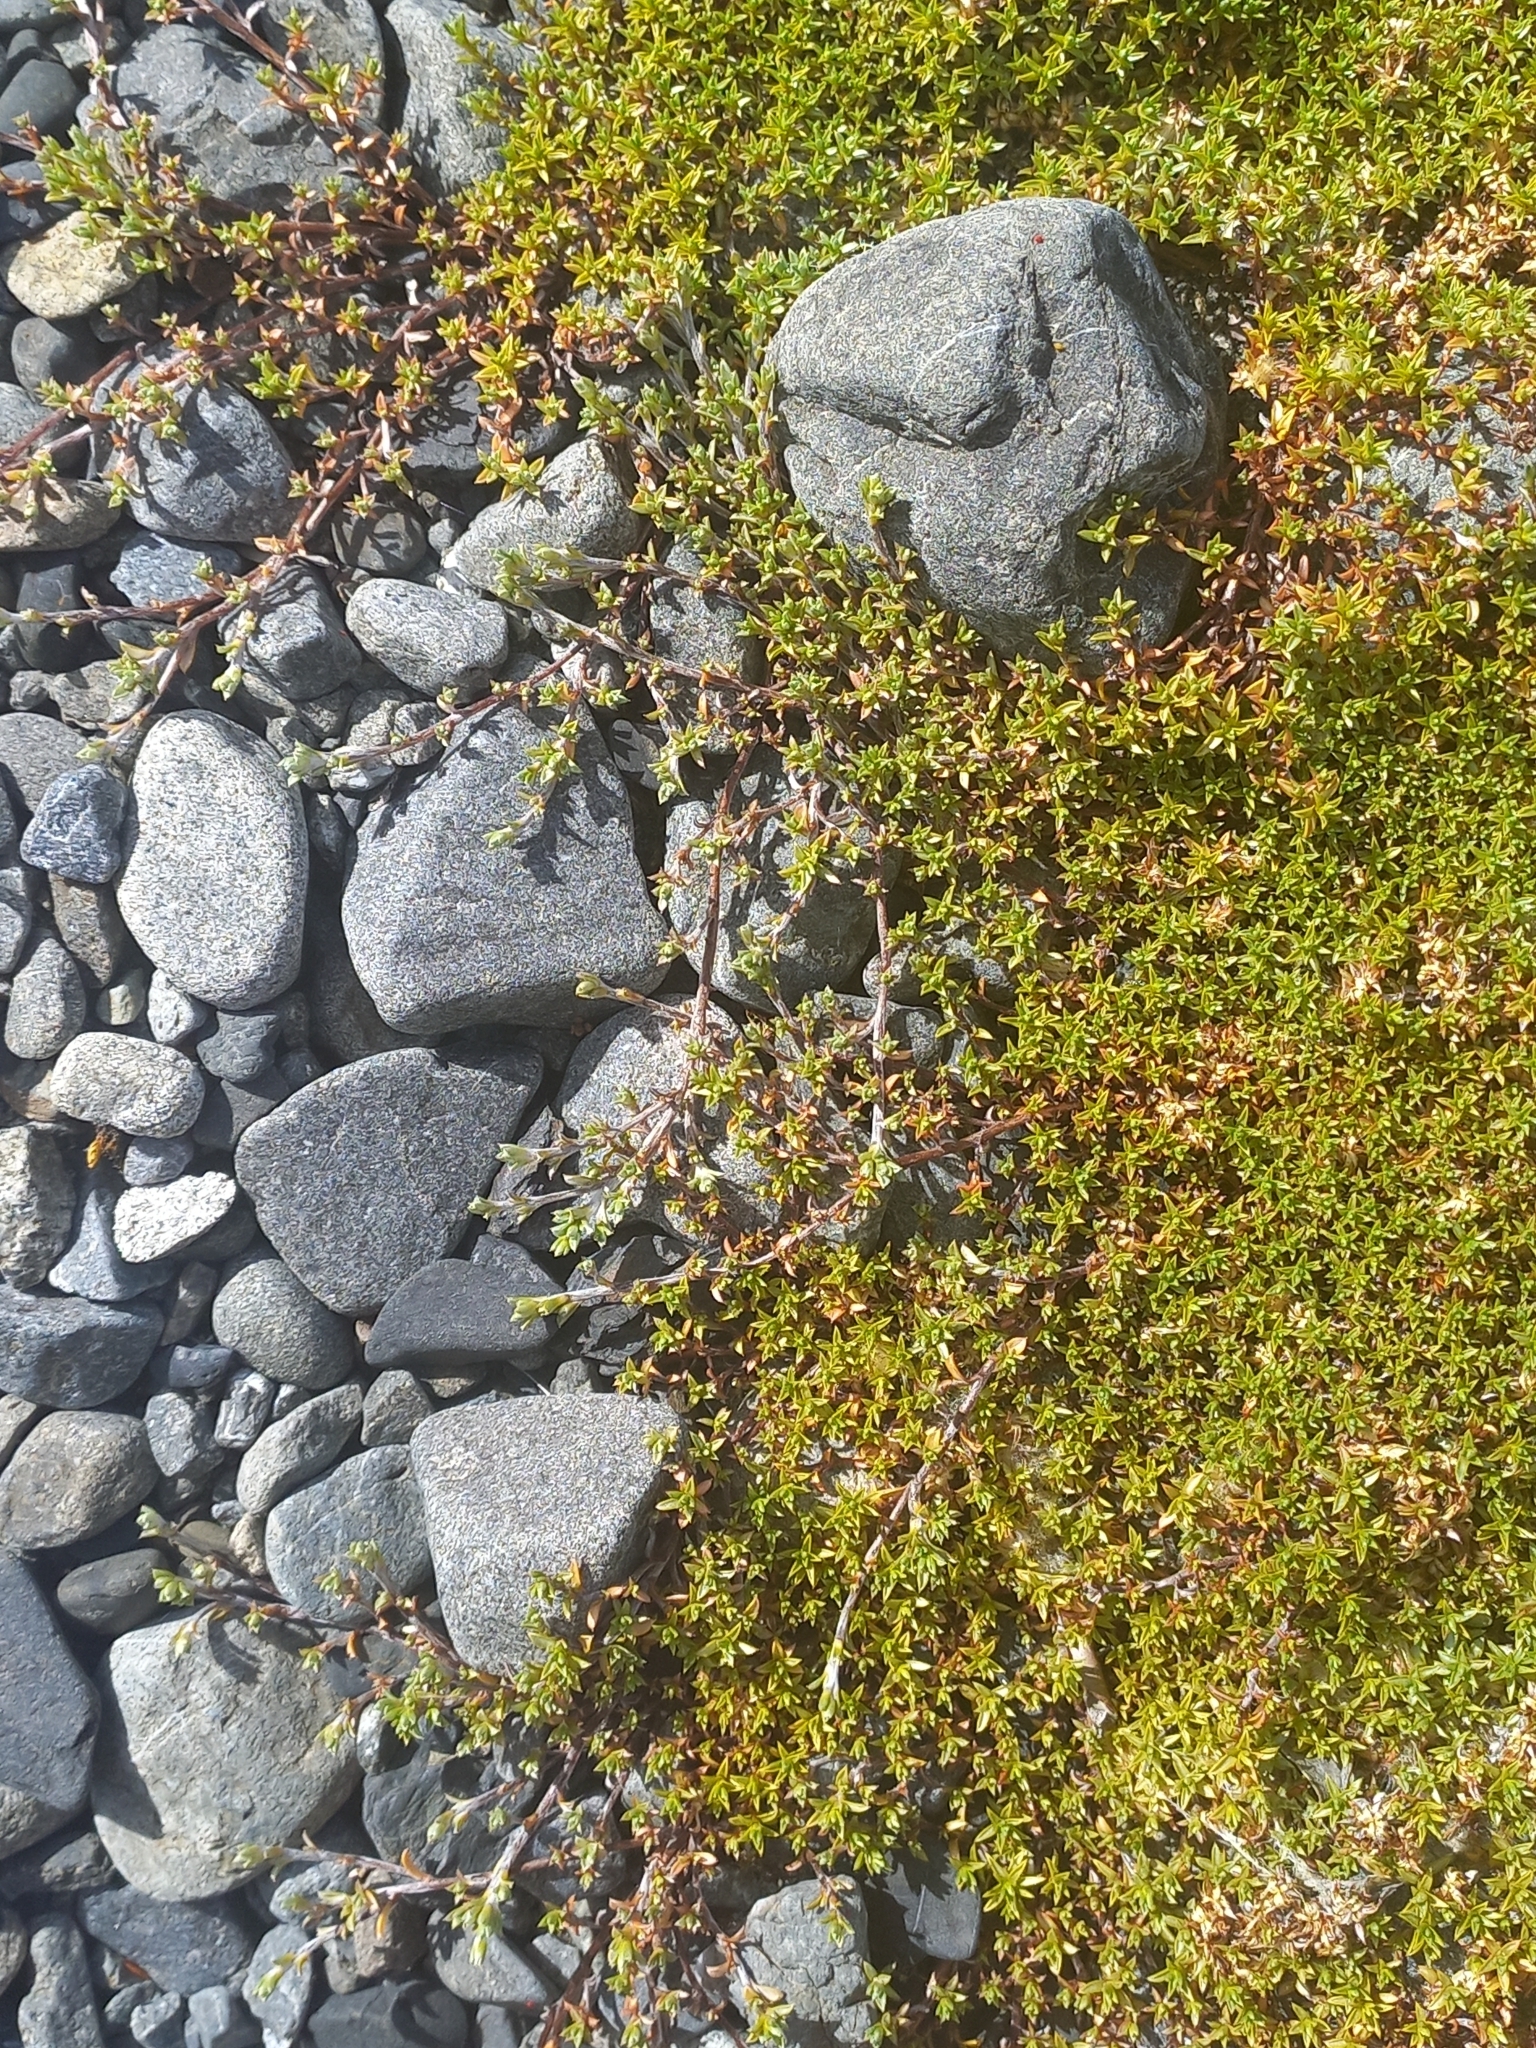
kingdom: Plantae
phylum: Tracheophyta
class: Magnoliopsida
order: Asterales
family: Asteraceae
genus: Raoulia
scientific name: Raoulia tenuicaulis
